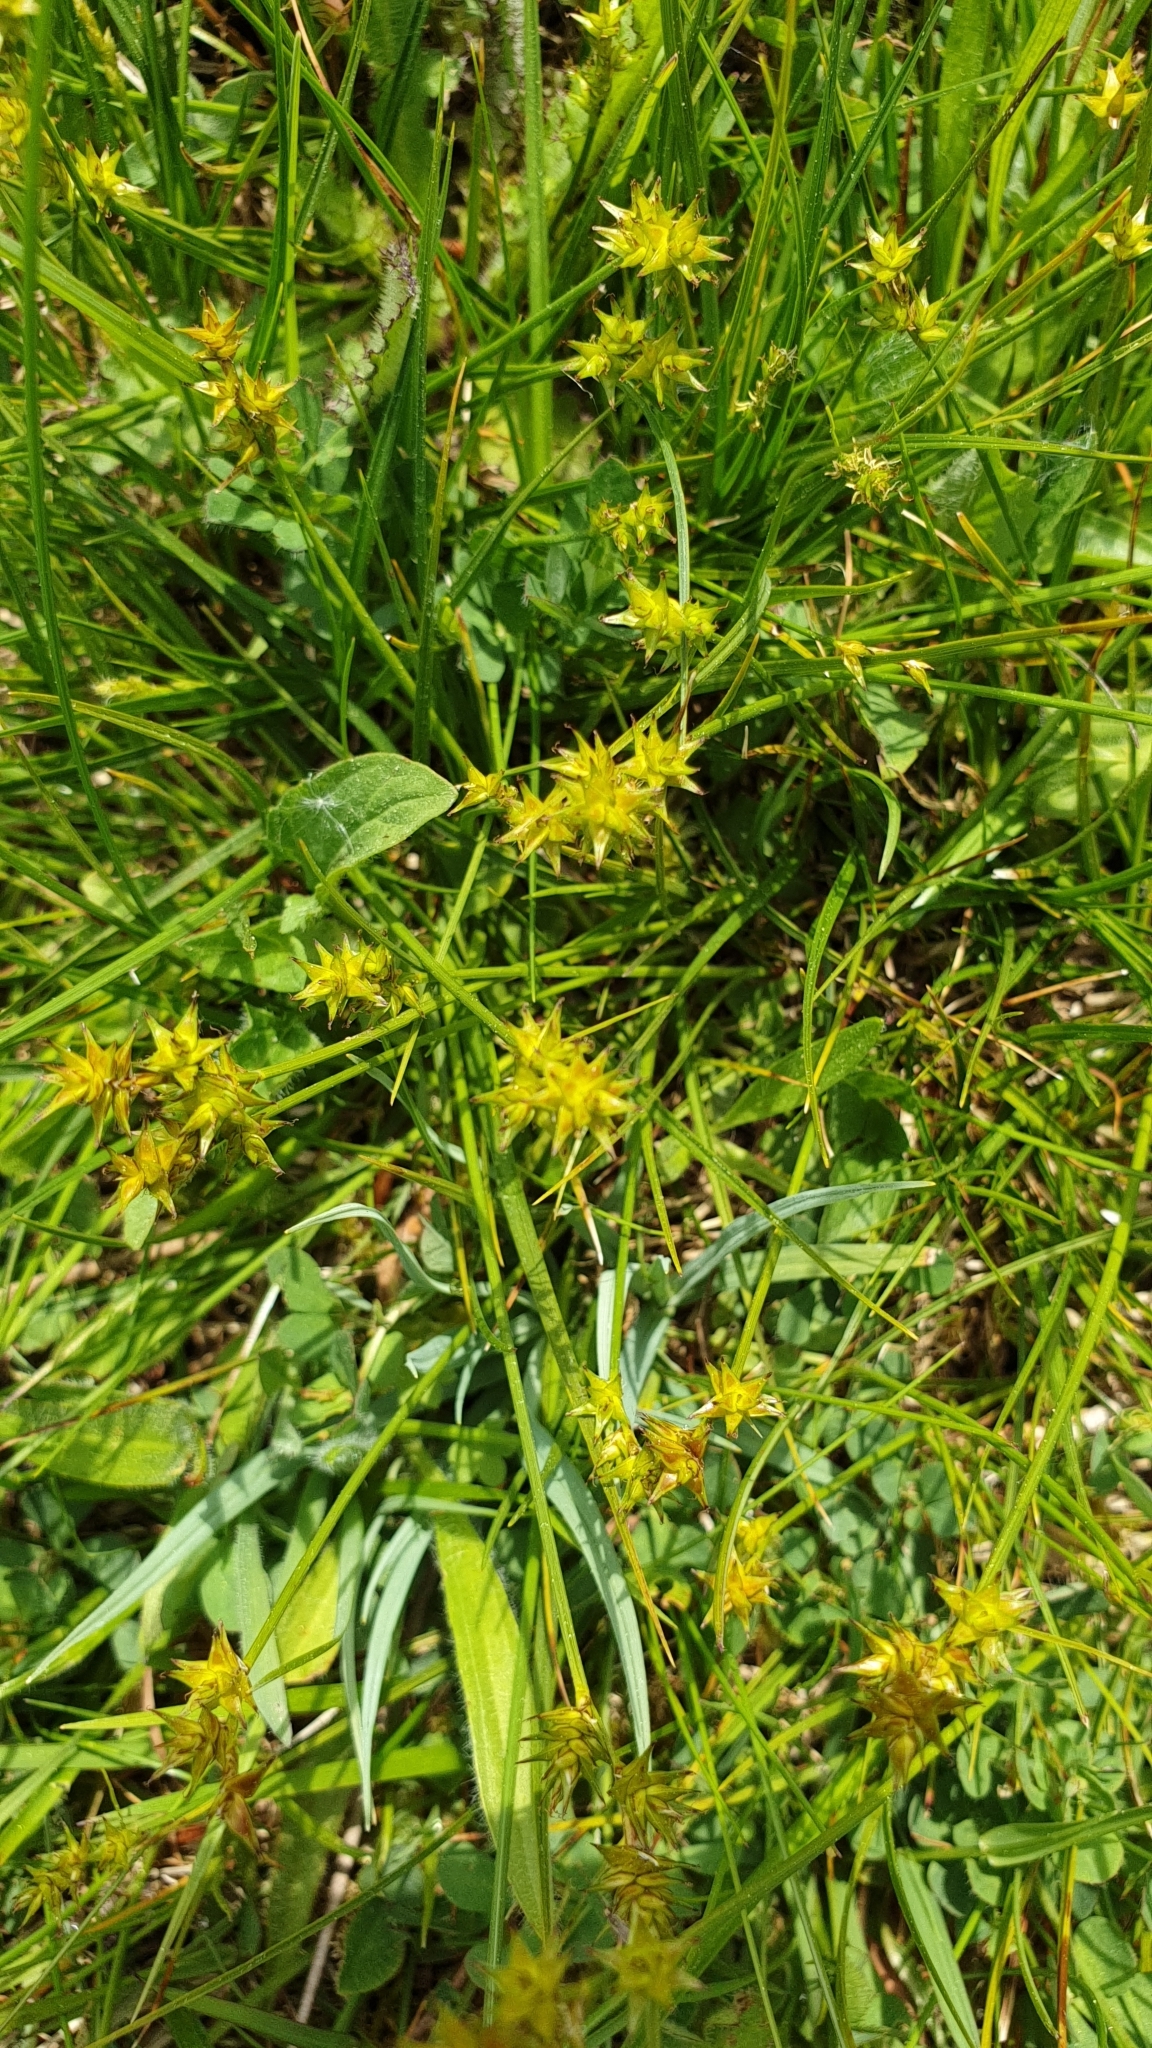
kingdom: Plantae
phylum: Tracheophyta
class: Liliopsida
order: Poales
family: Cyperaceae
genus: Carex
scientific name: Carex echinata
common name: Star sedge
